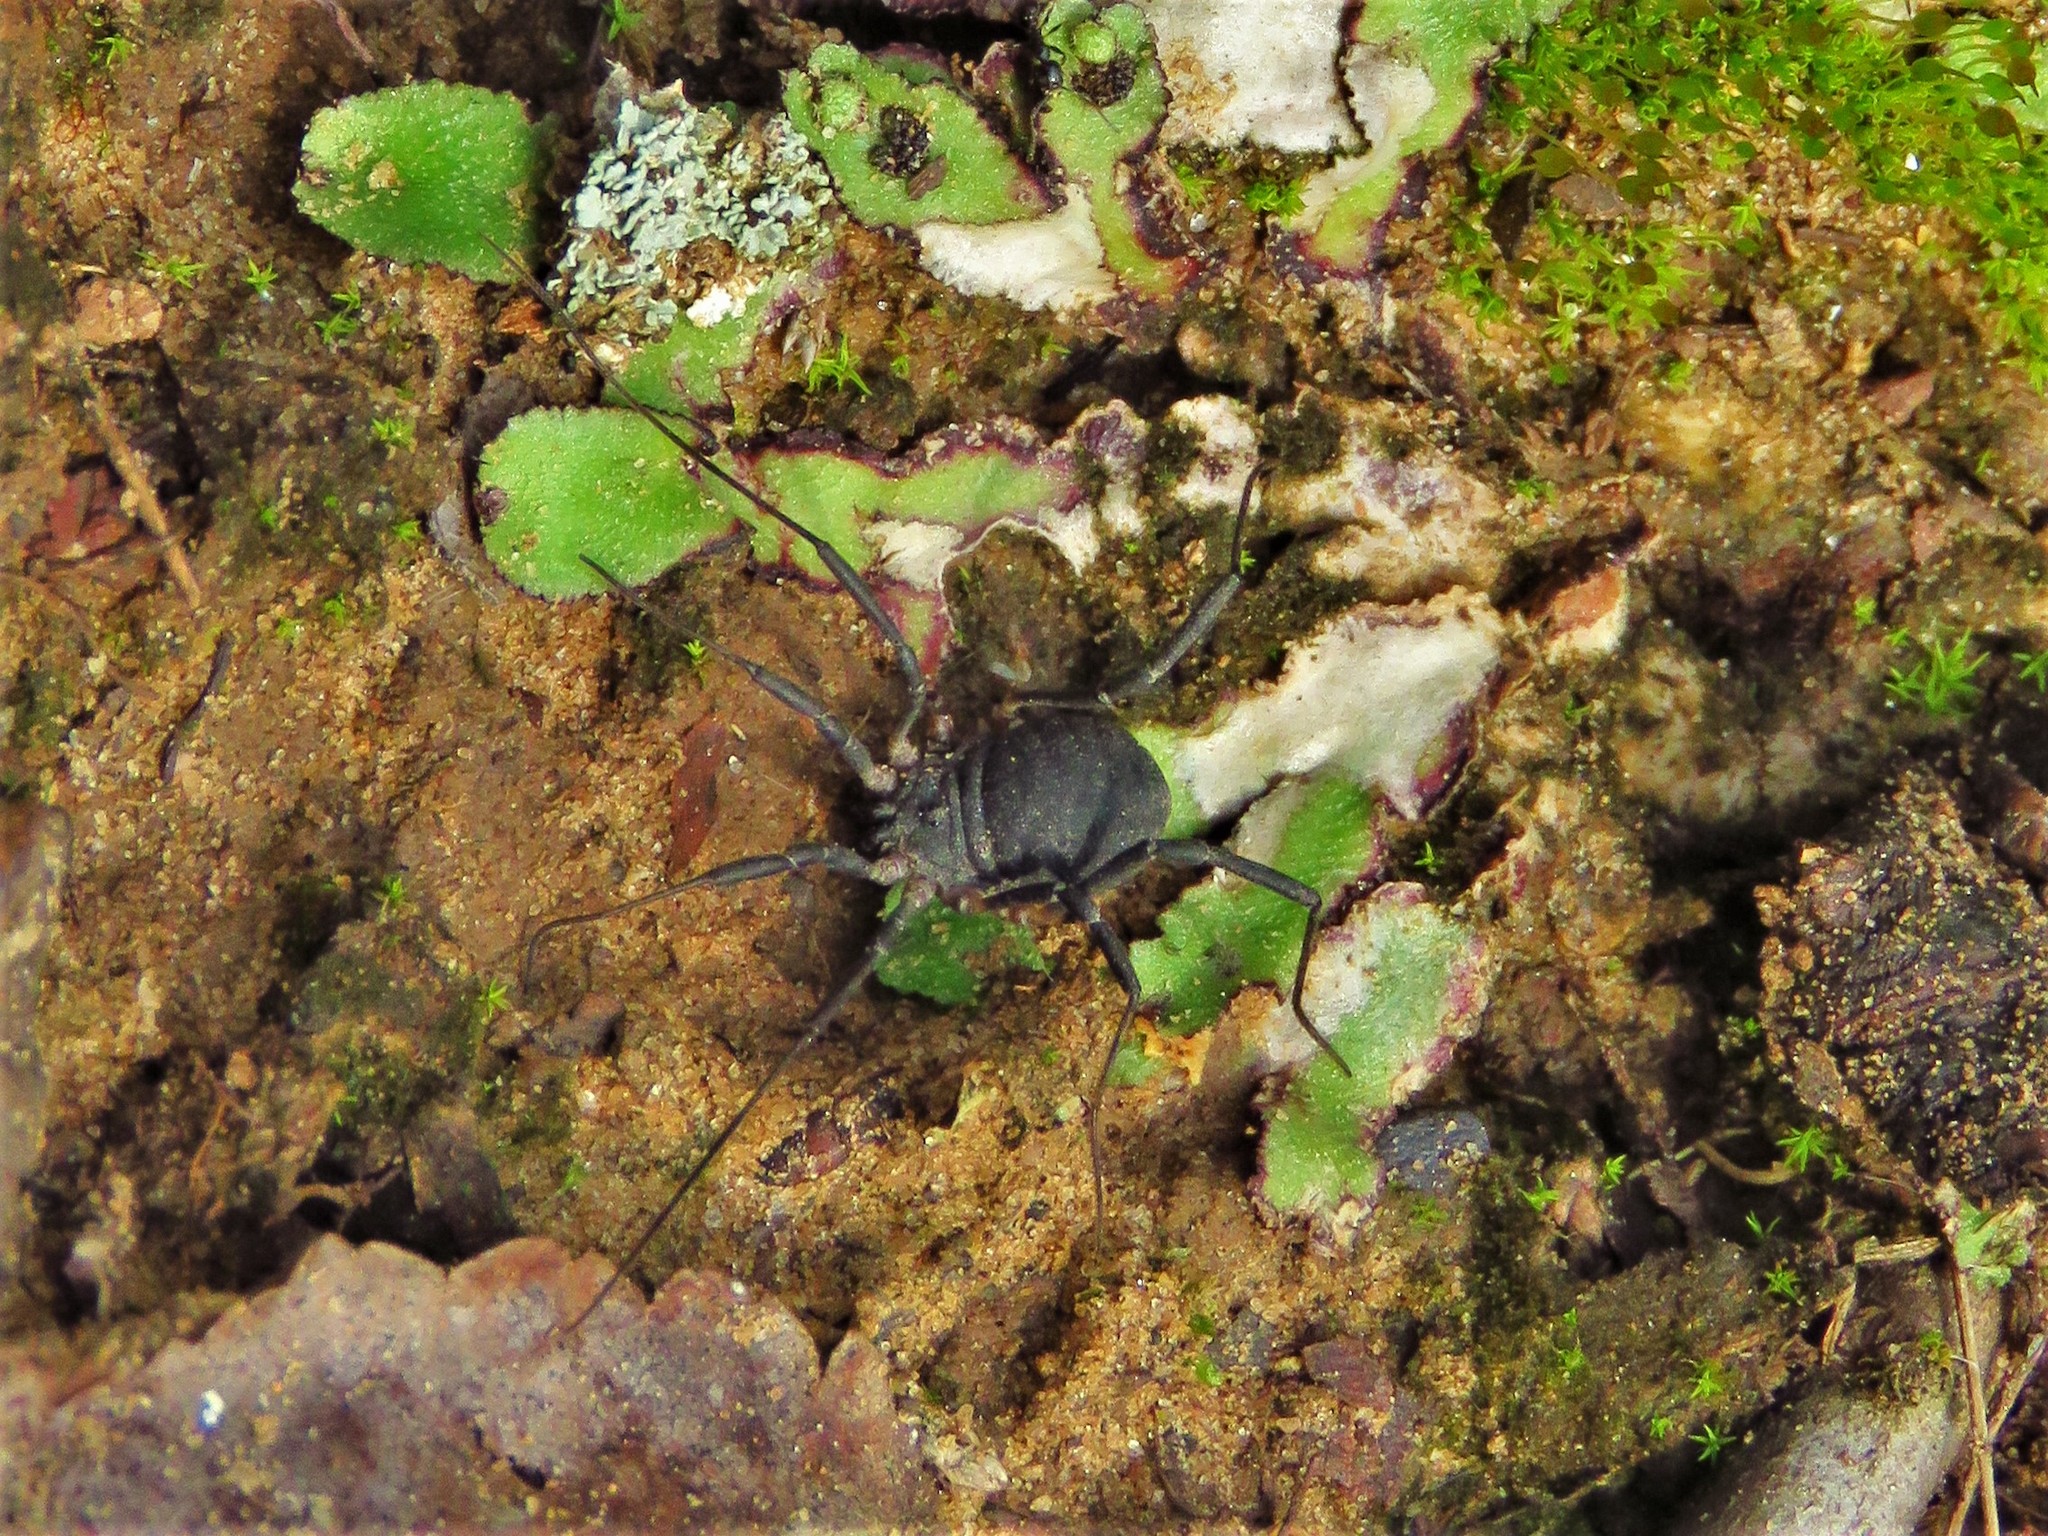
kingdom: Animalia
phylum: Arthropoda
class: Arachnida
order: Opiliones
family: Sclerosomatidae
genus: Eumesosoma
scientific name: Eumesosoma roeweri
